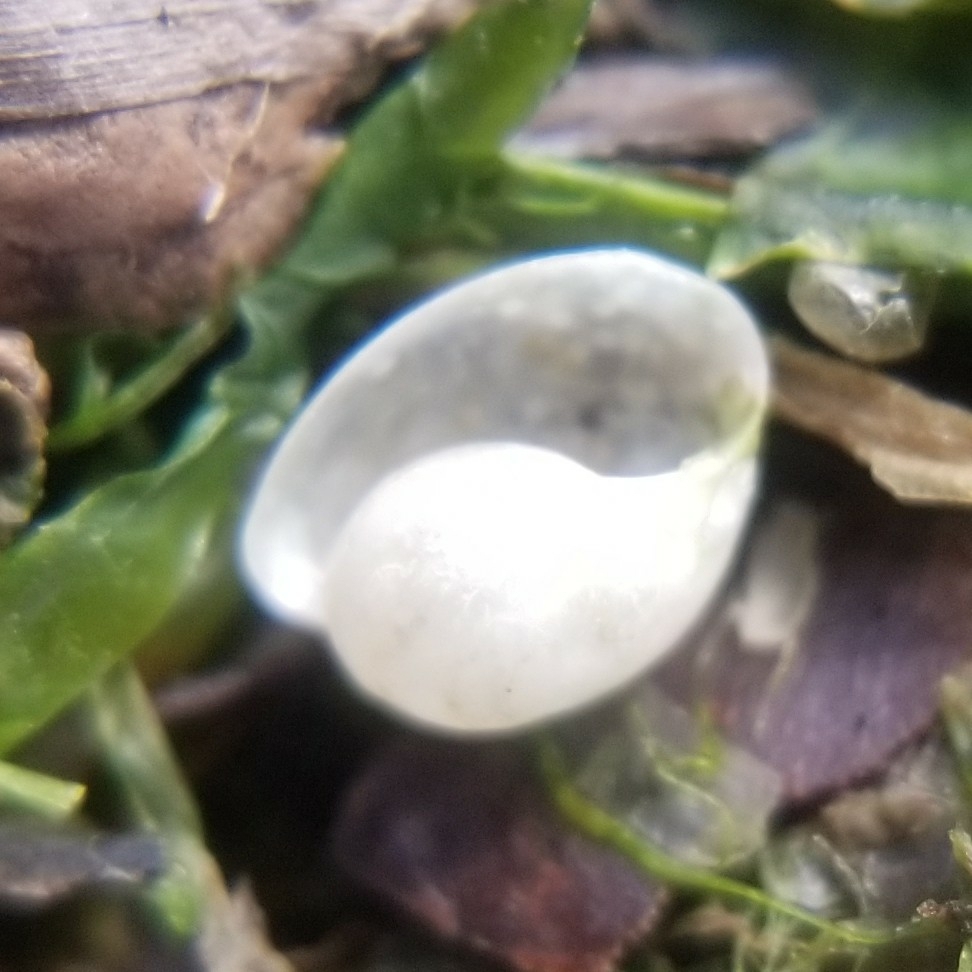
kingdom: Animalia
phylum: Mollusca
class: Gastropoda
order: Cephalaspidea
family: Haminoeidae
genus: Haloa
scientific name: Haloa japonica
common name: Japanese bubble snail
